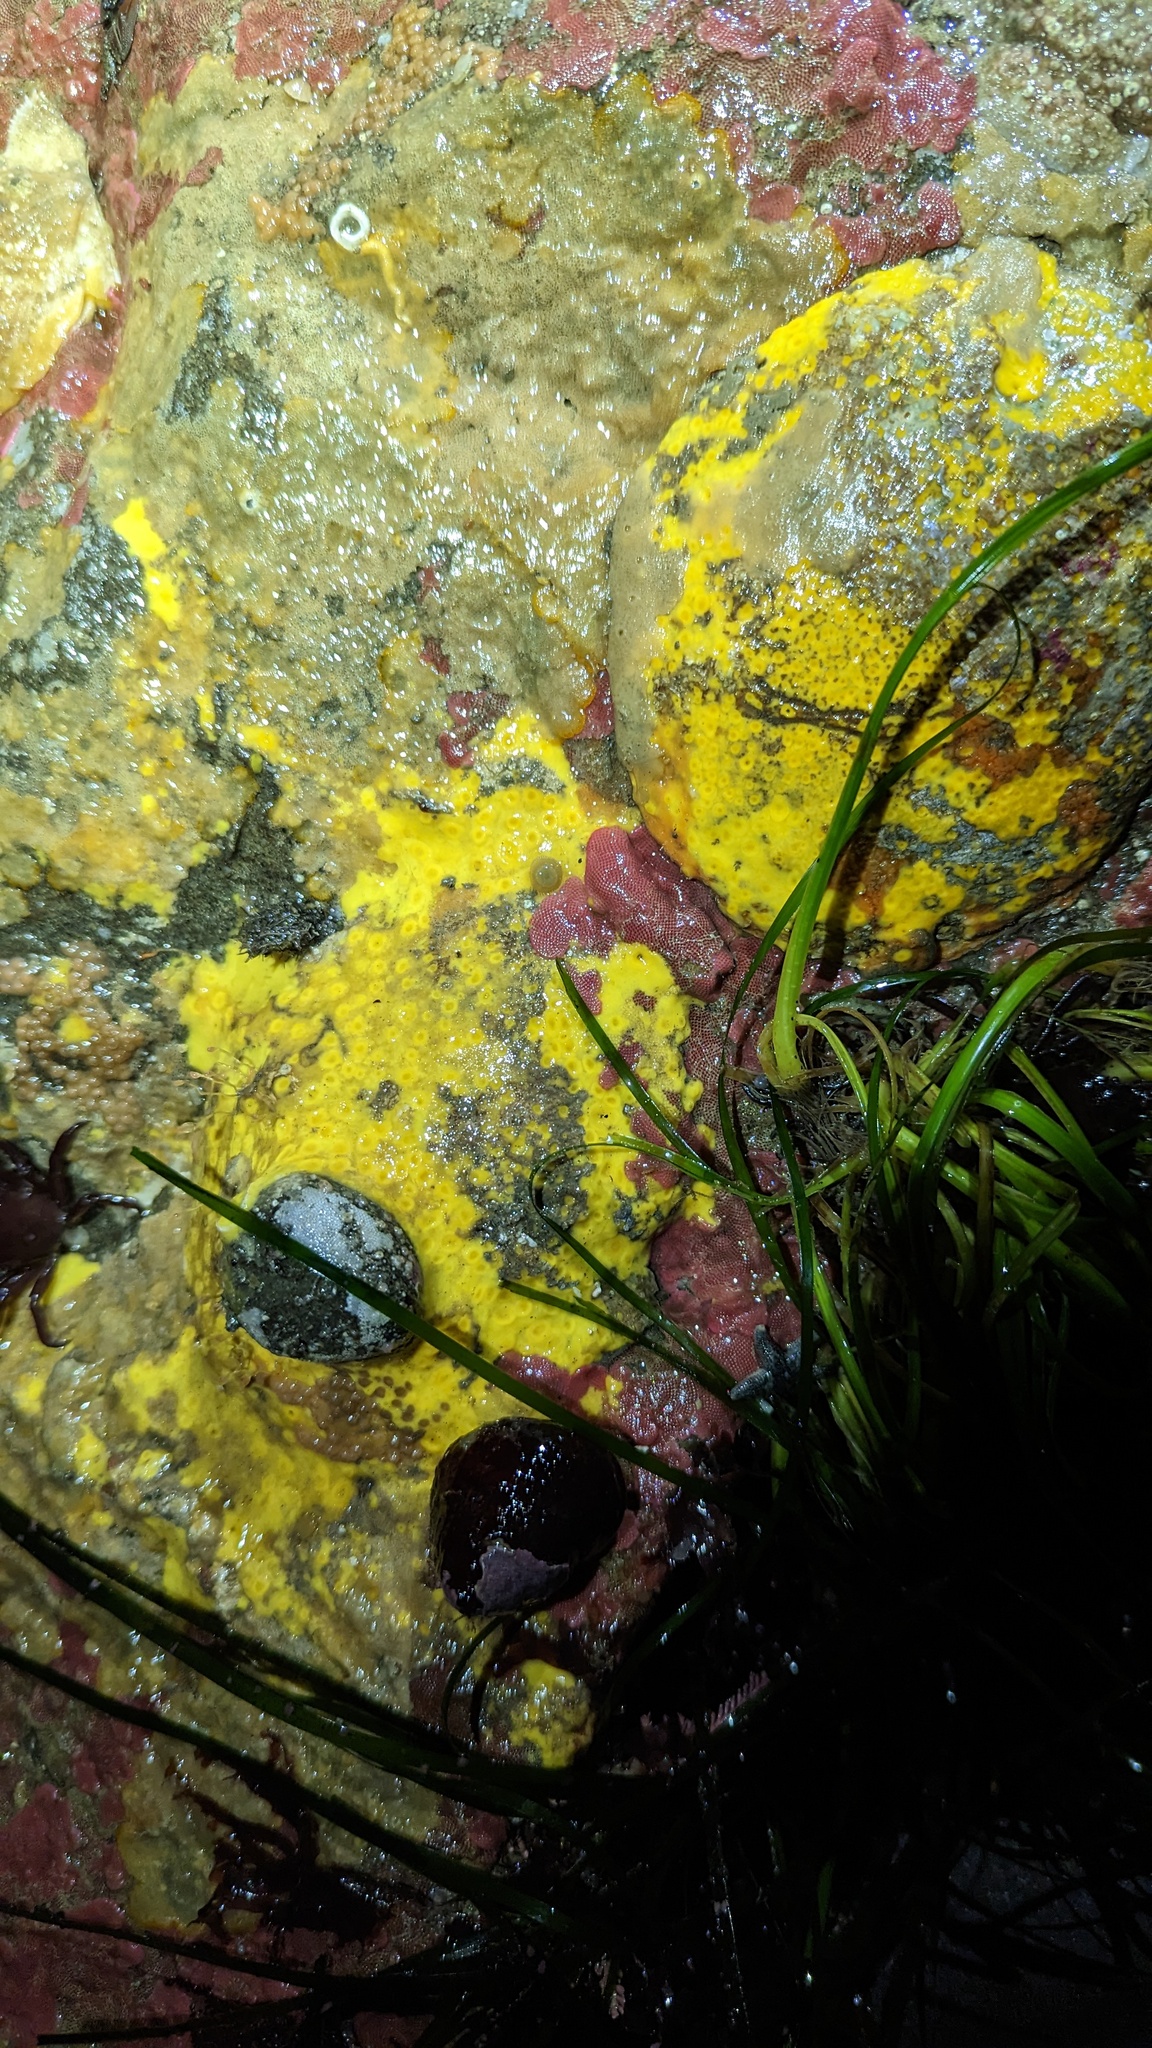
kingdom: Animalia
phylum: Porifera
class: Demospongiae
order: Clionaida
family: Clionaidae
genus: Cliona
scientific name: Cliona californiana
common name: California boring horny sponge
